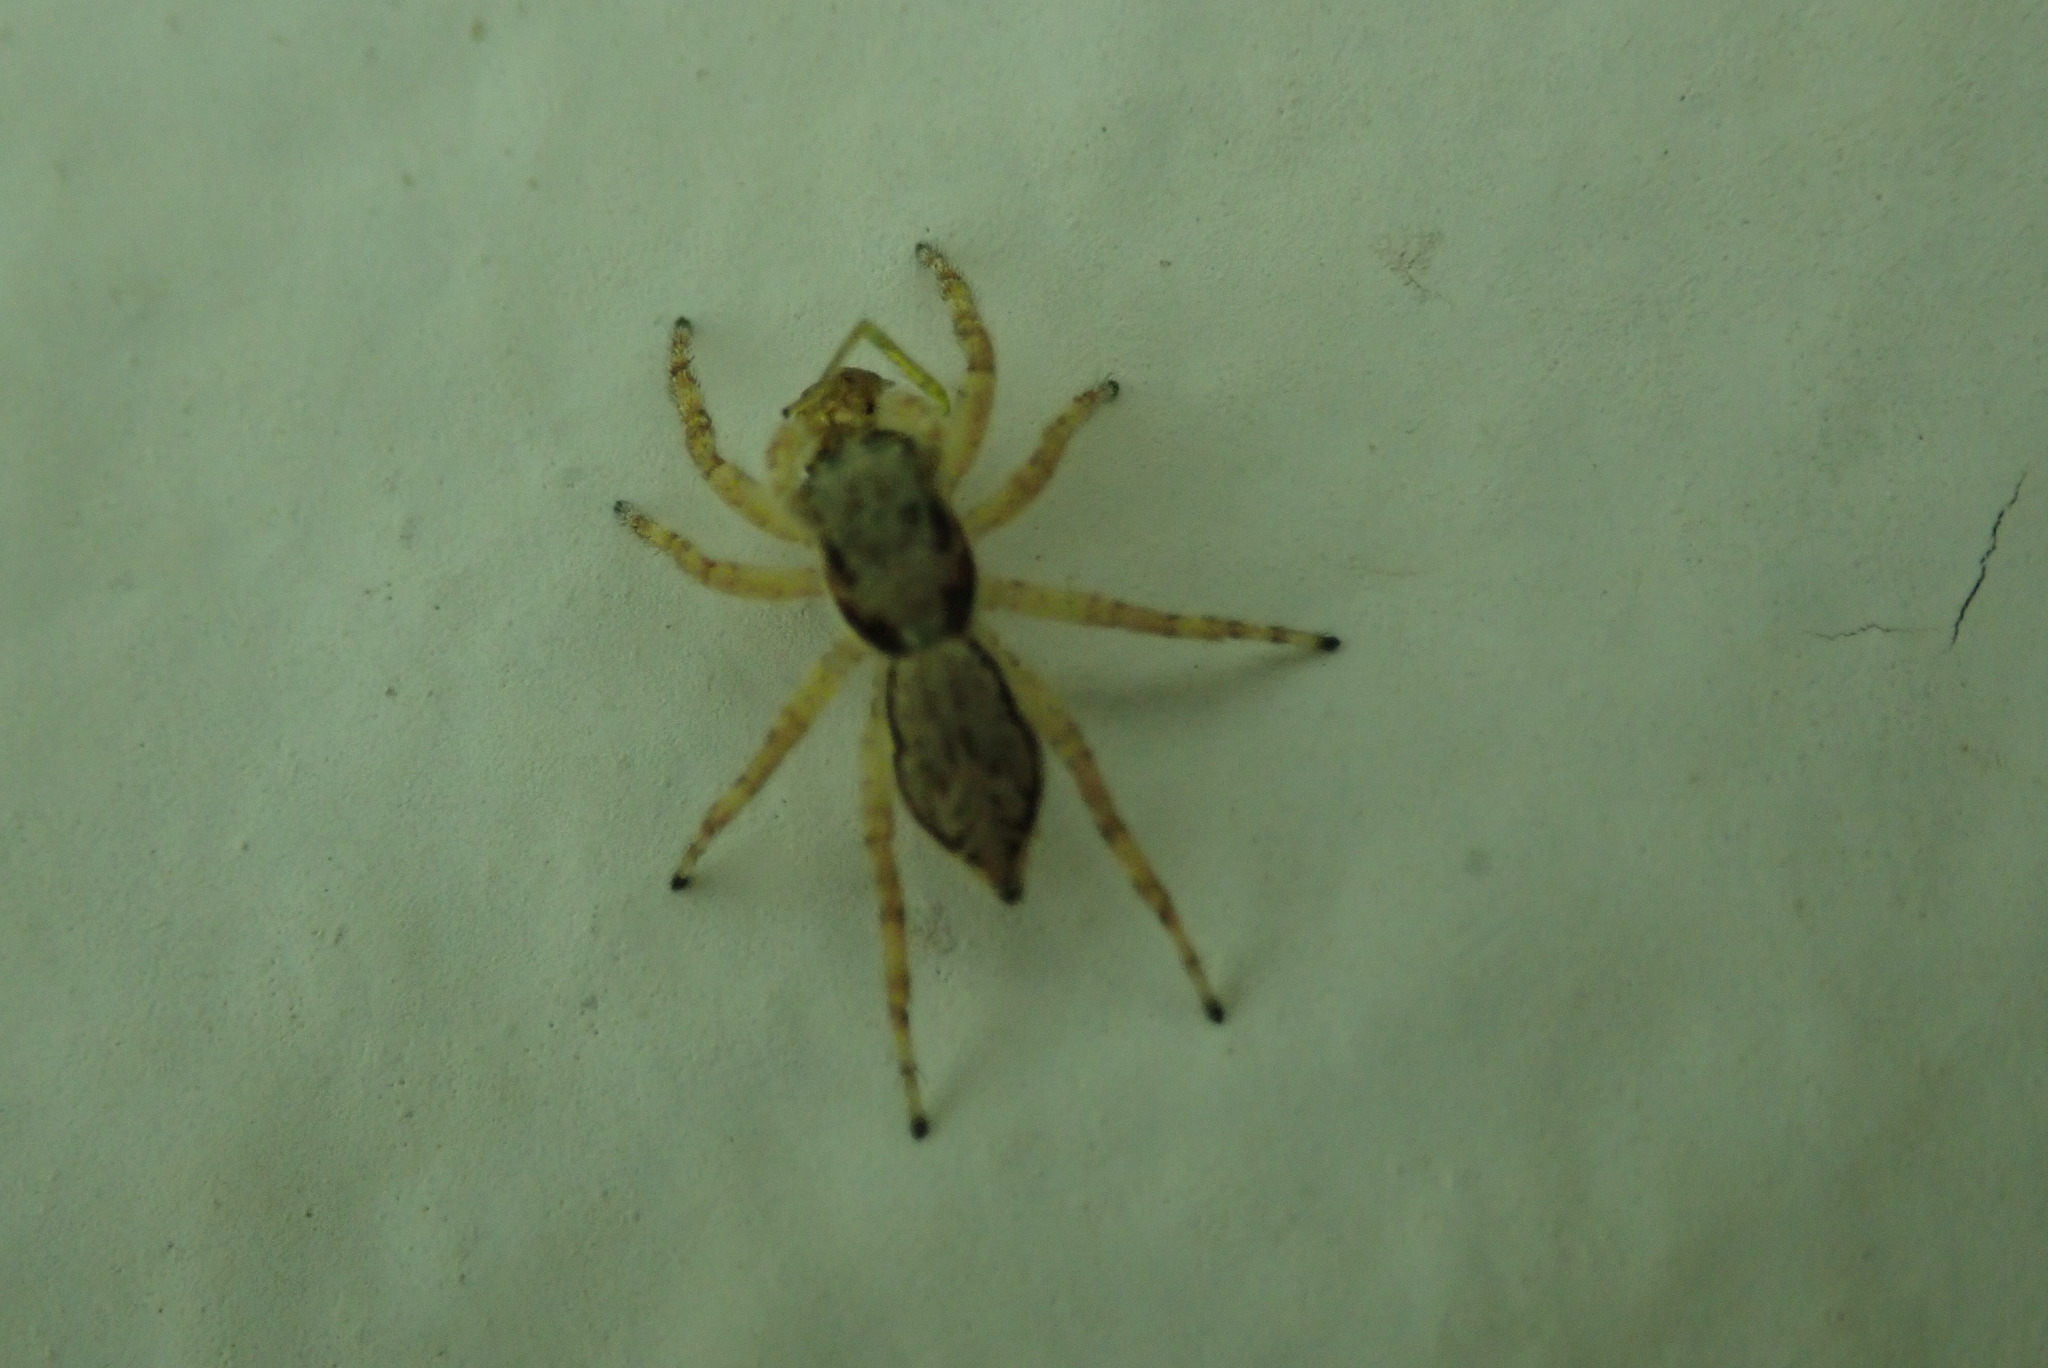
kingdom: Animalia
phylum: Arthropoda
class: Arachnida
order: Araneae
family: Salticidae
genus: Menemerus
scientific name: Menemerus bivittatus
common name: Gray wall jumper
